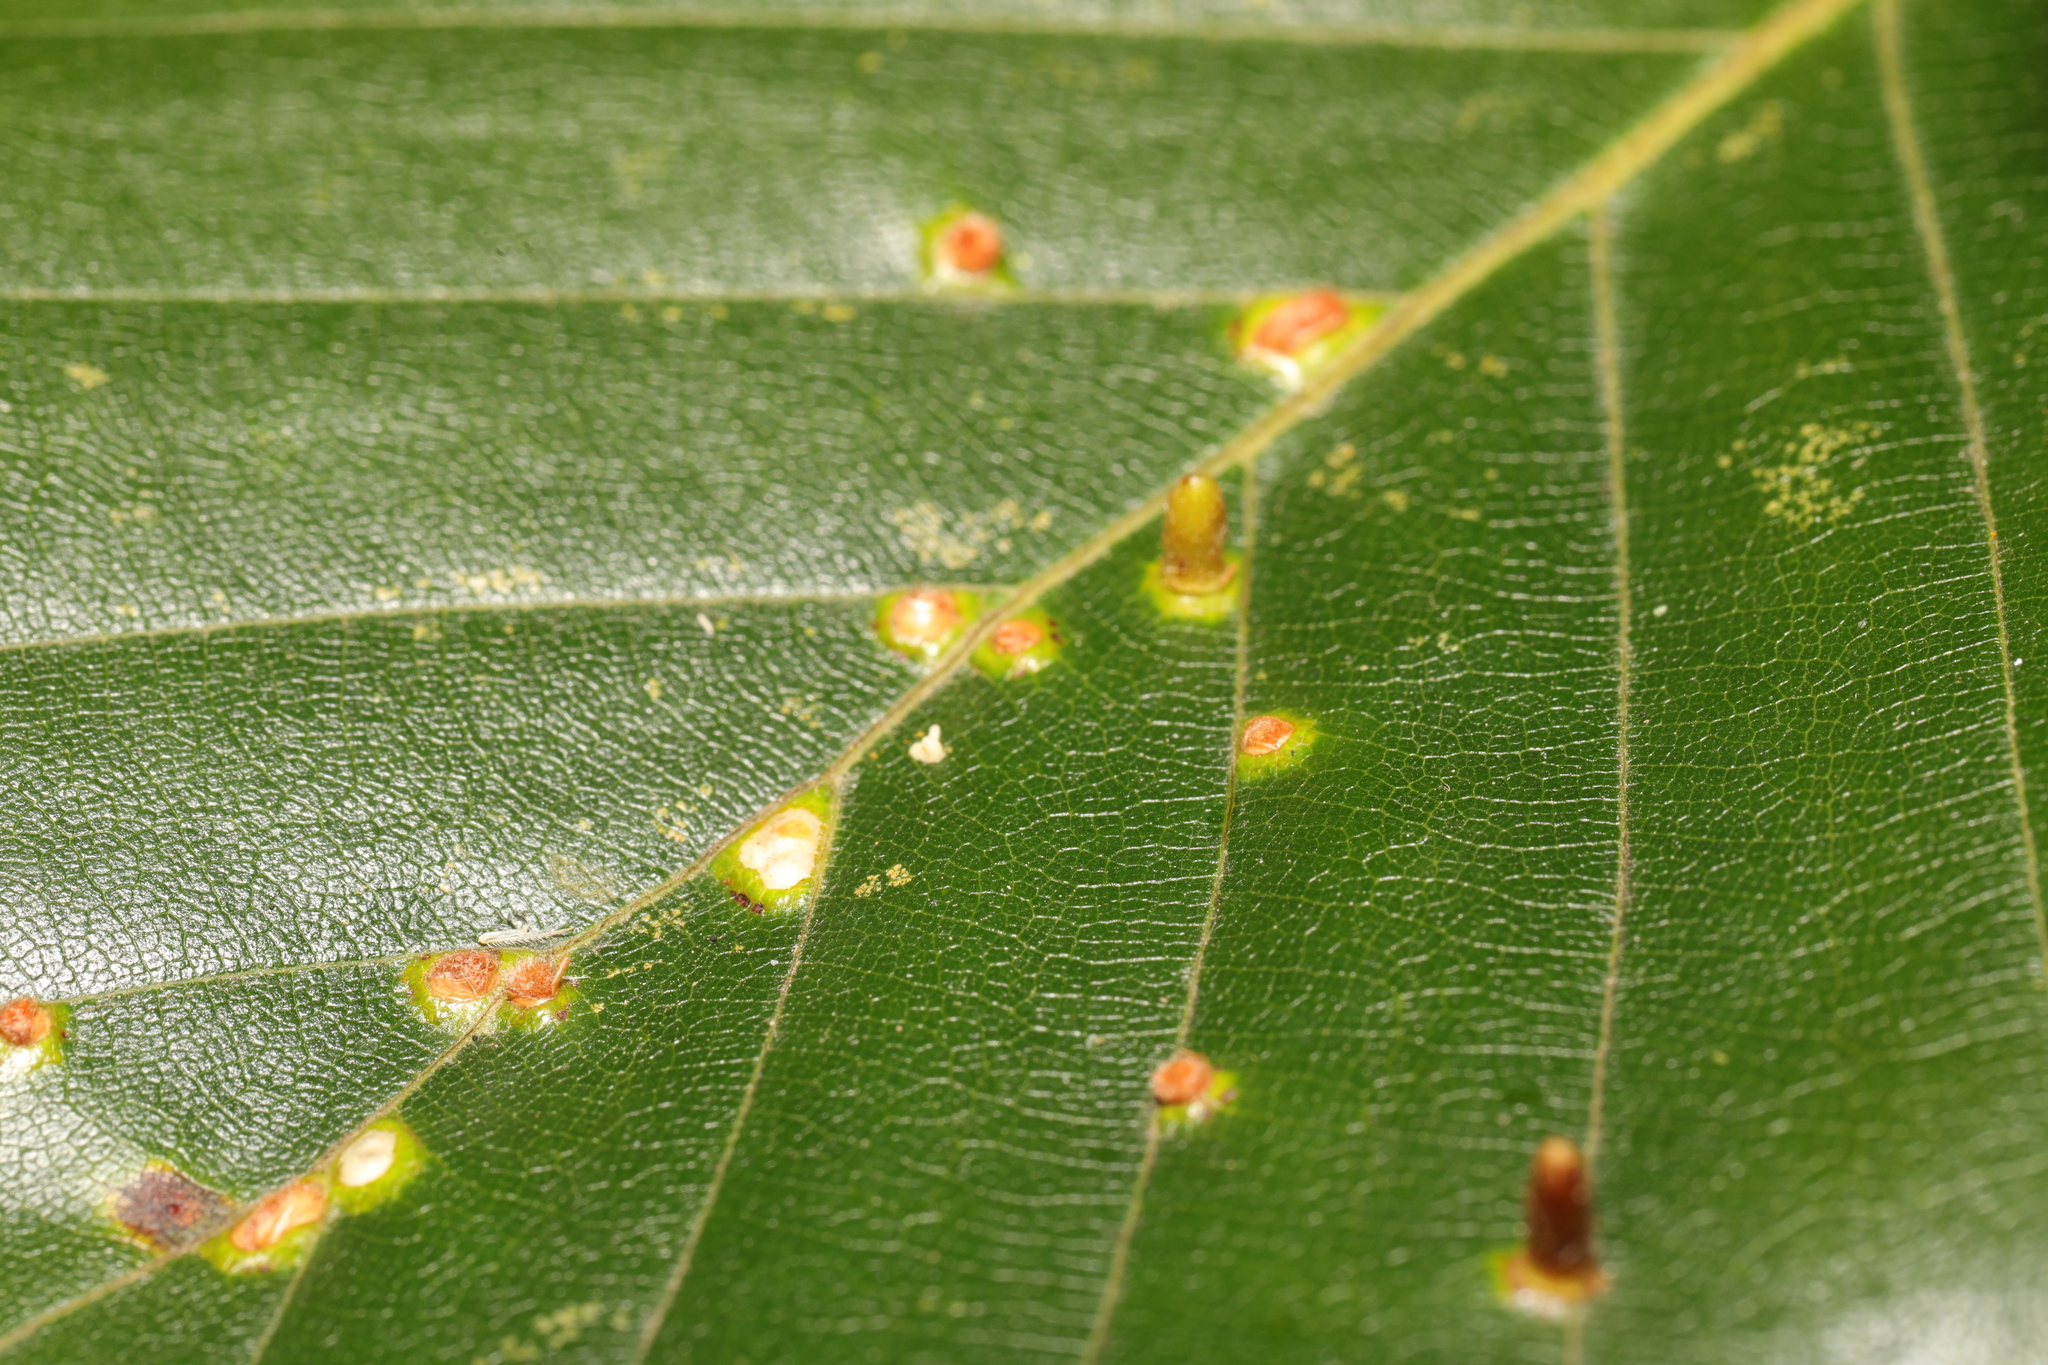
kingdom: Animalia
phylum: Arthropoda
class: Insecta
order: Diptera
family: Cecidomyiidae
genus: Hartigiola
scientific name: Hartigiola annulipes
